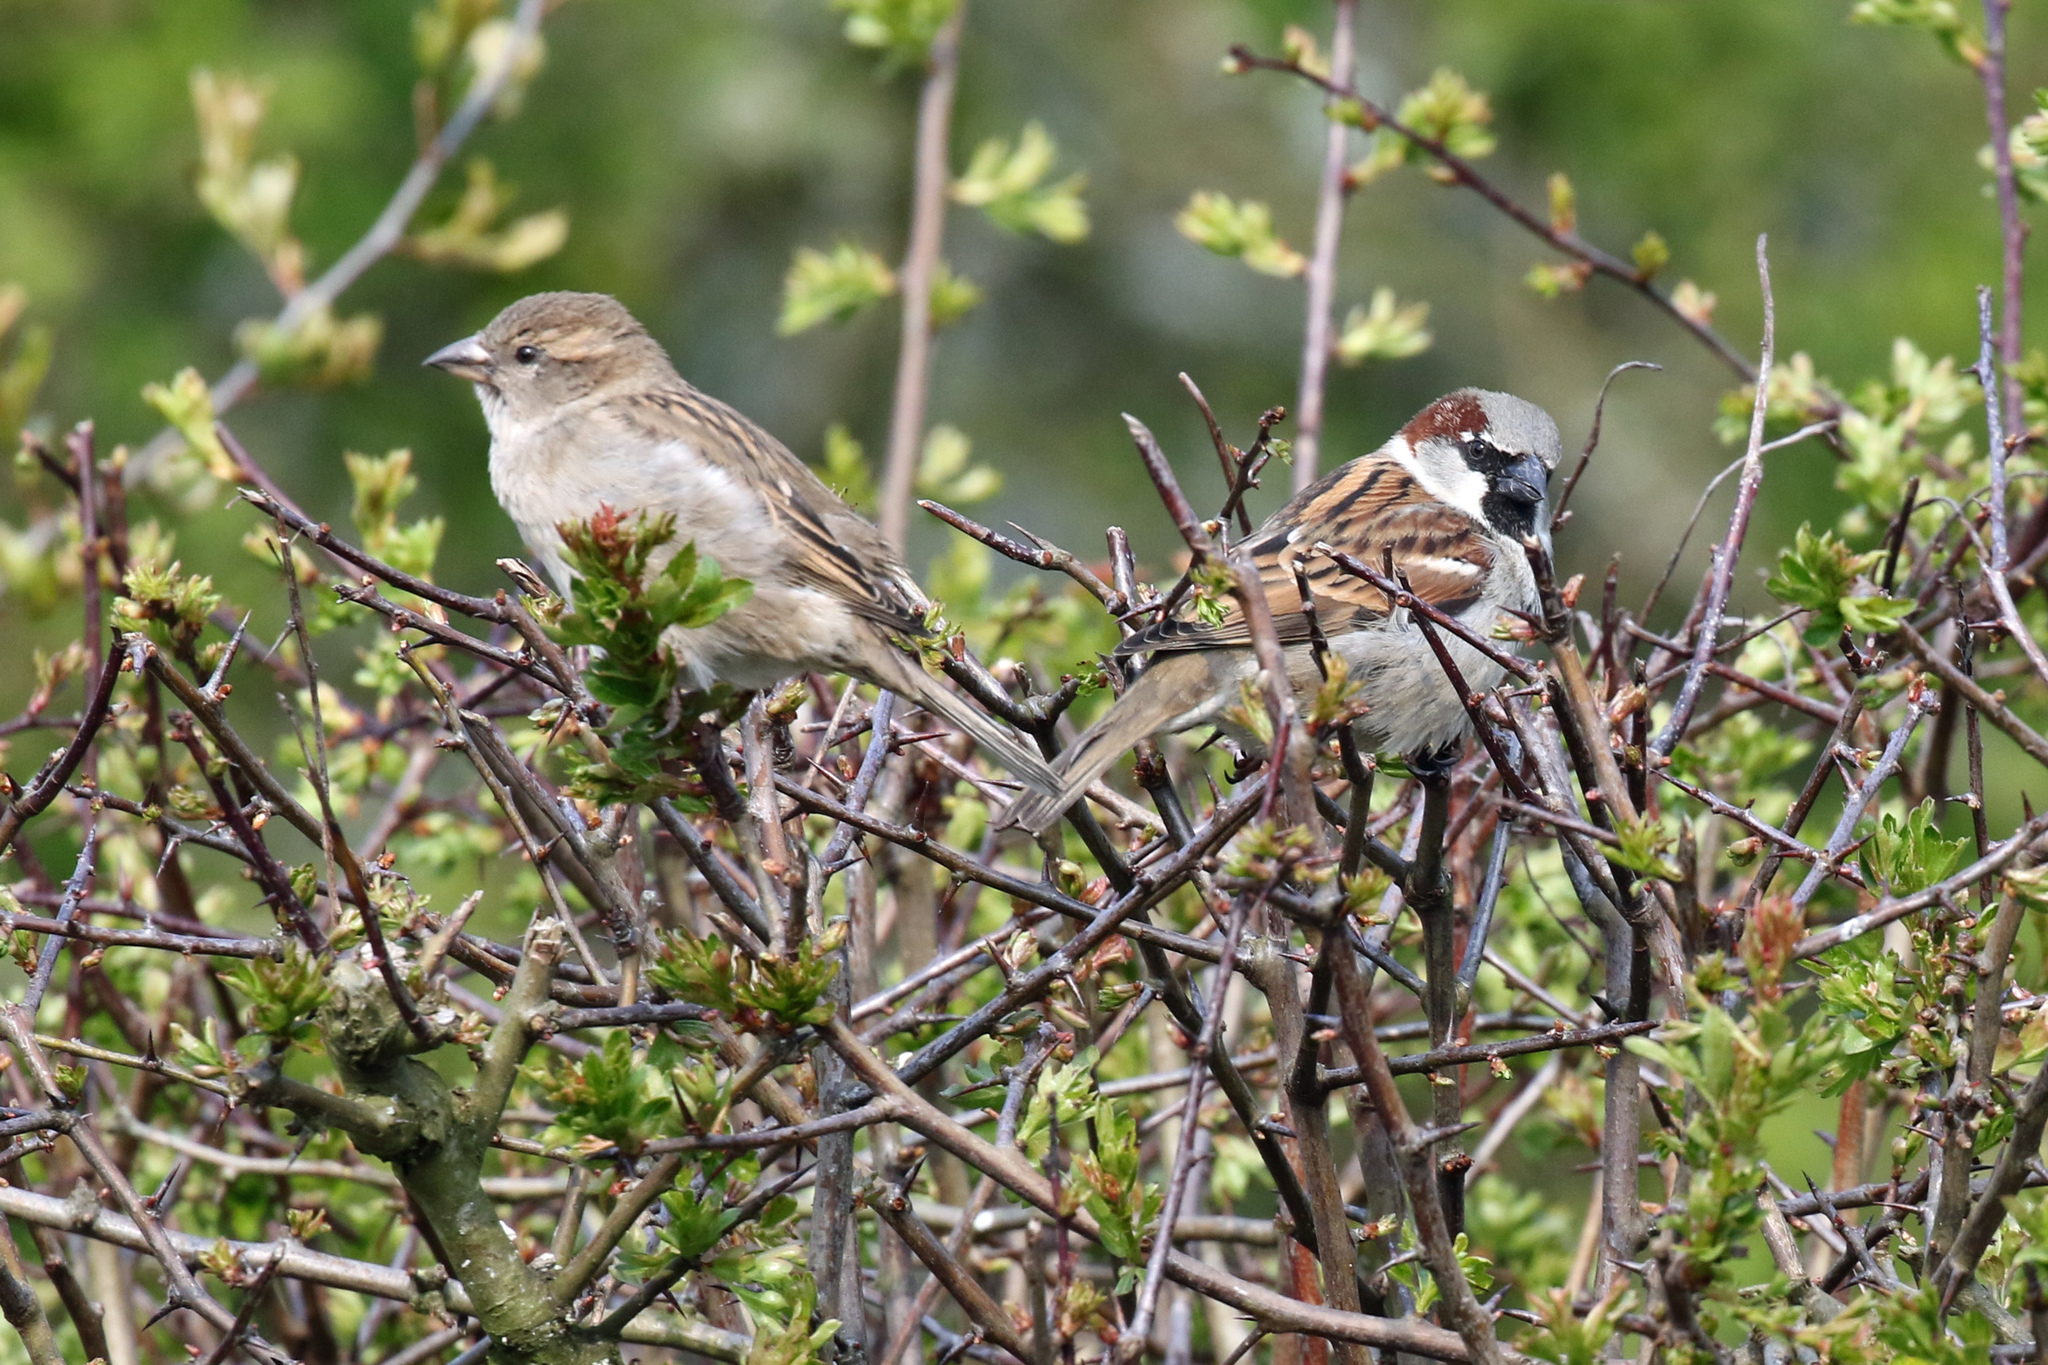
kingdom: Animalia
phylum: Chordata
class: Aves
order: Passeriformes
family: Passeridae
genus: Passer
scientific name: Passer domesticus
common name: House sparrow
